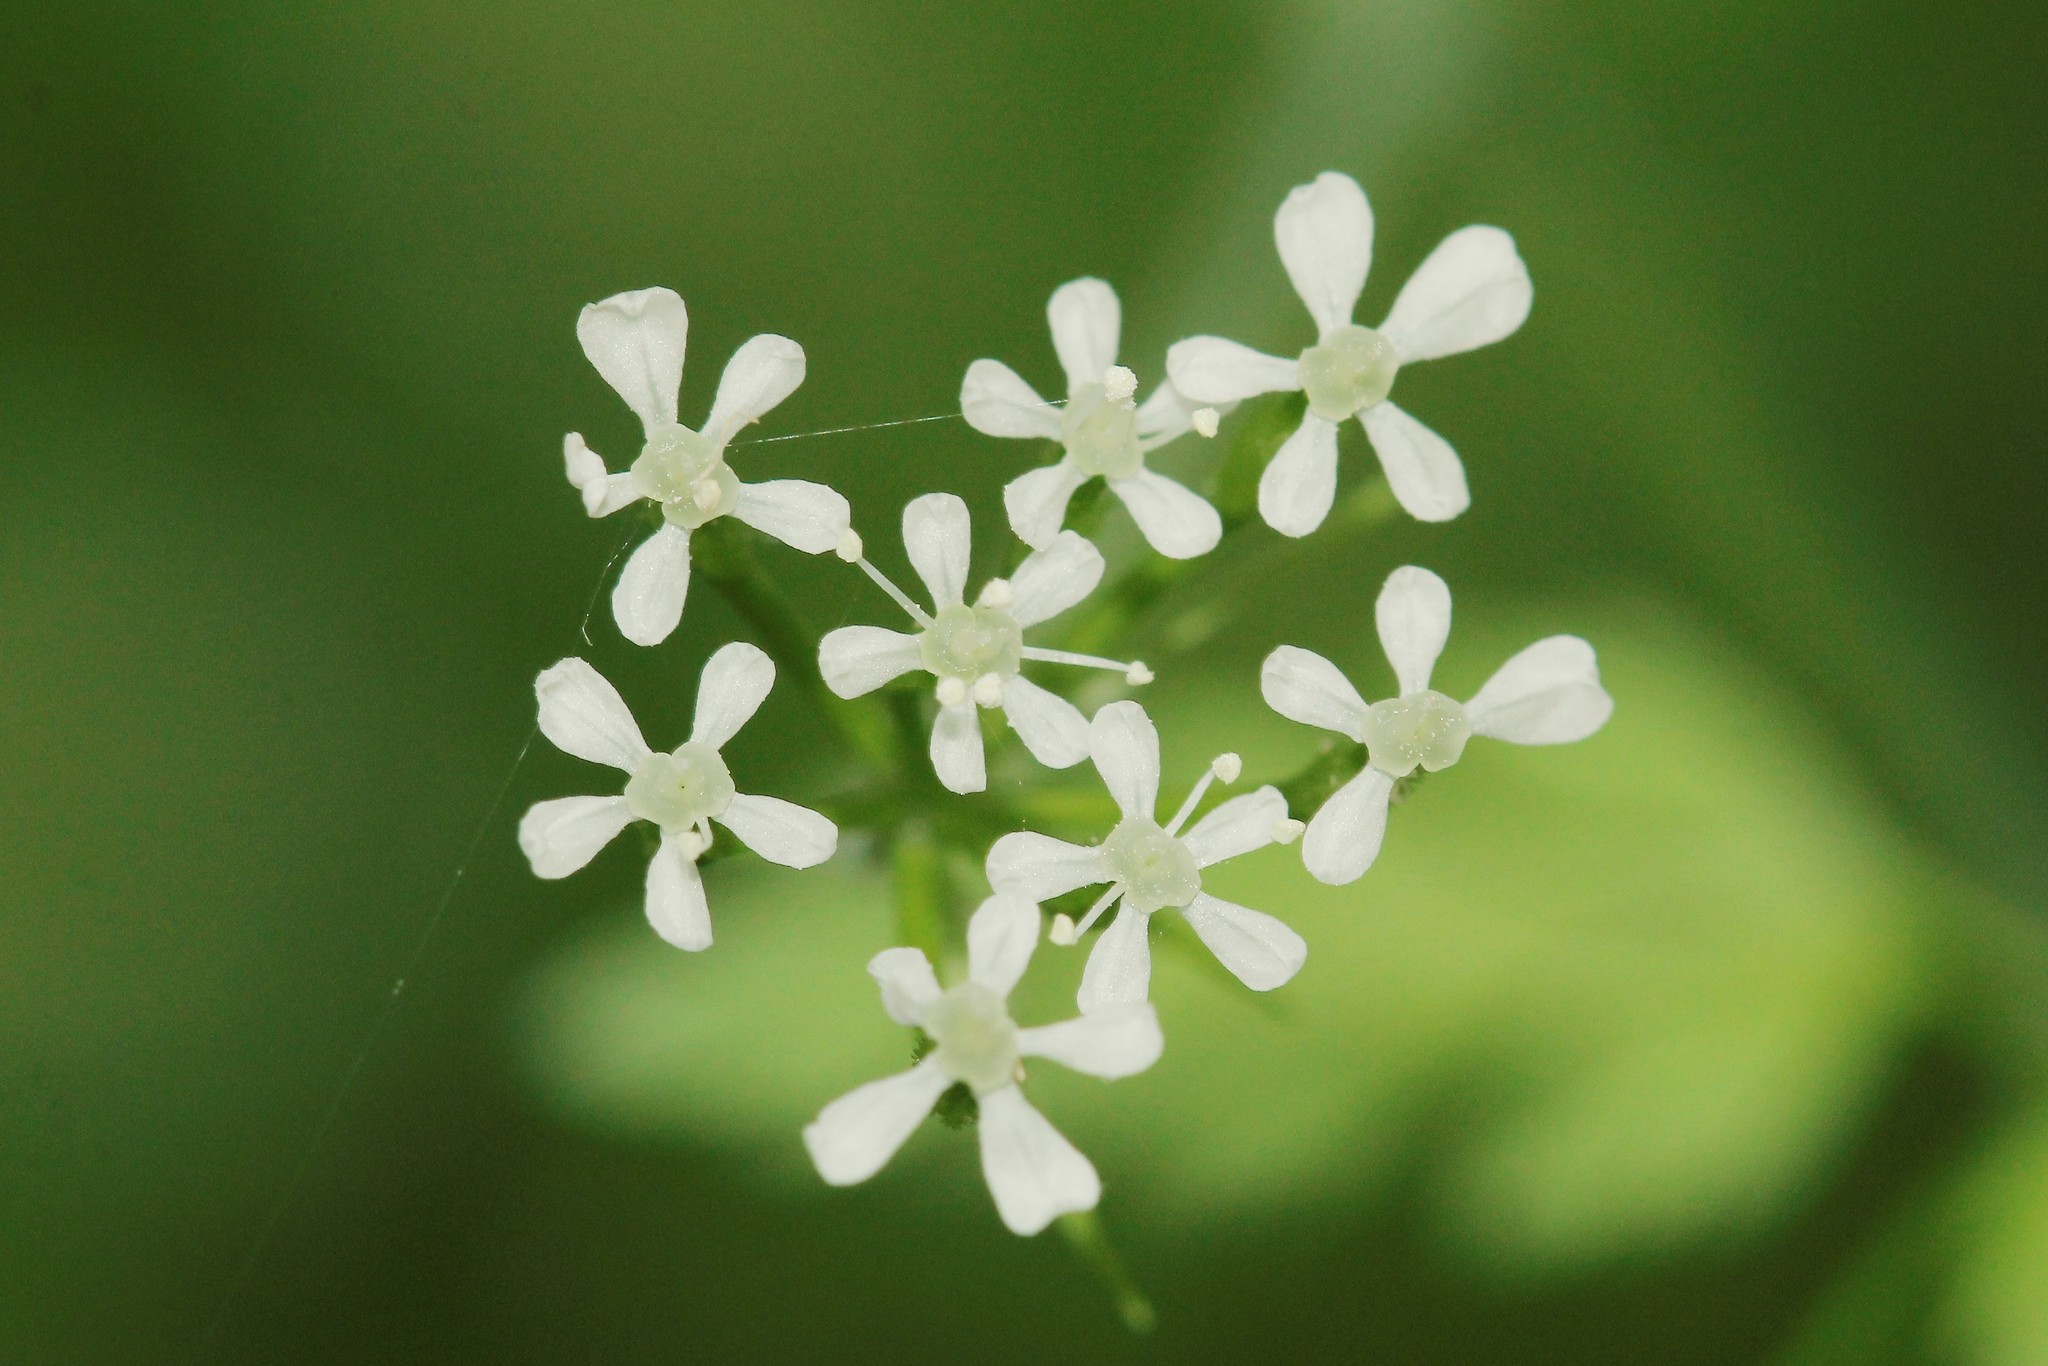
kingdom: Plantae
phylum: Tracheophyta
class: Magnoliopsida
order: Apiales
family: Apiaceae
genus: Anthriscus
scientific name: Anthriscus cerefolium
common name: Garden chervil
